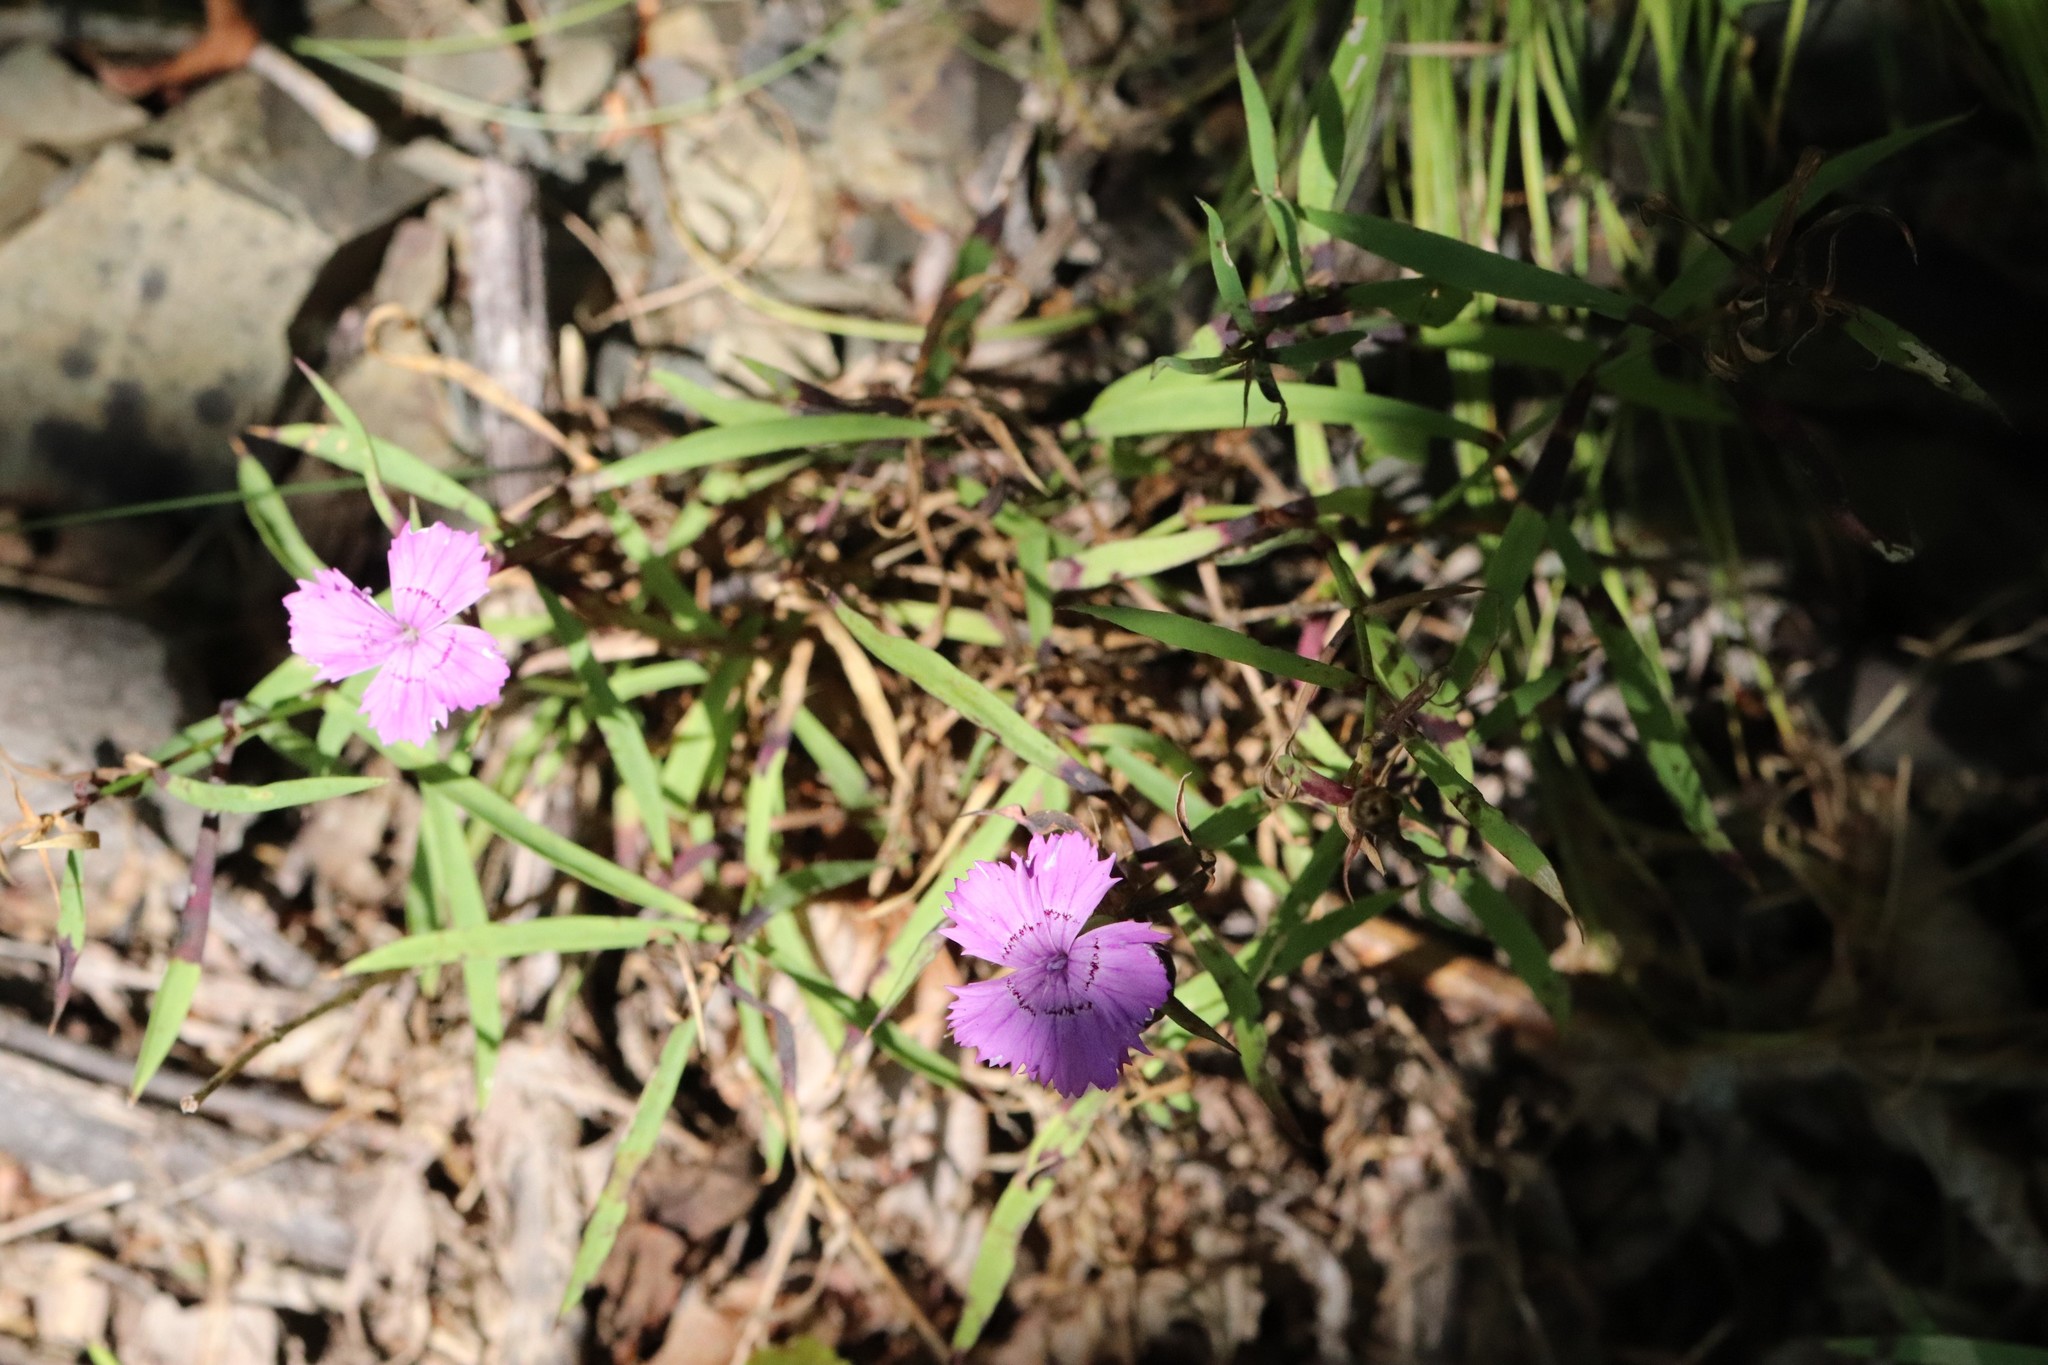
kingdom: Plantae
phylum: Tracheophyta
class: Magnoliopsida
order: Caryophyllales
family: Caryophyllaceae
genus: Dianthus
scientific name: Dianthus chinensis
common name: Rainbow pink
